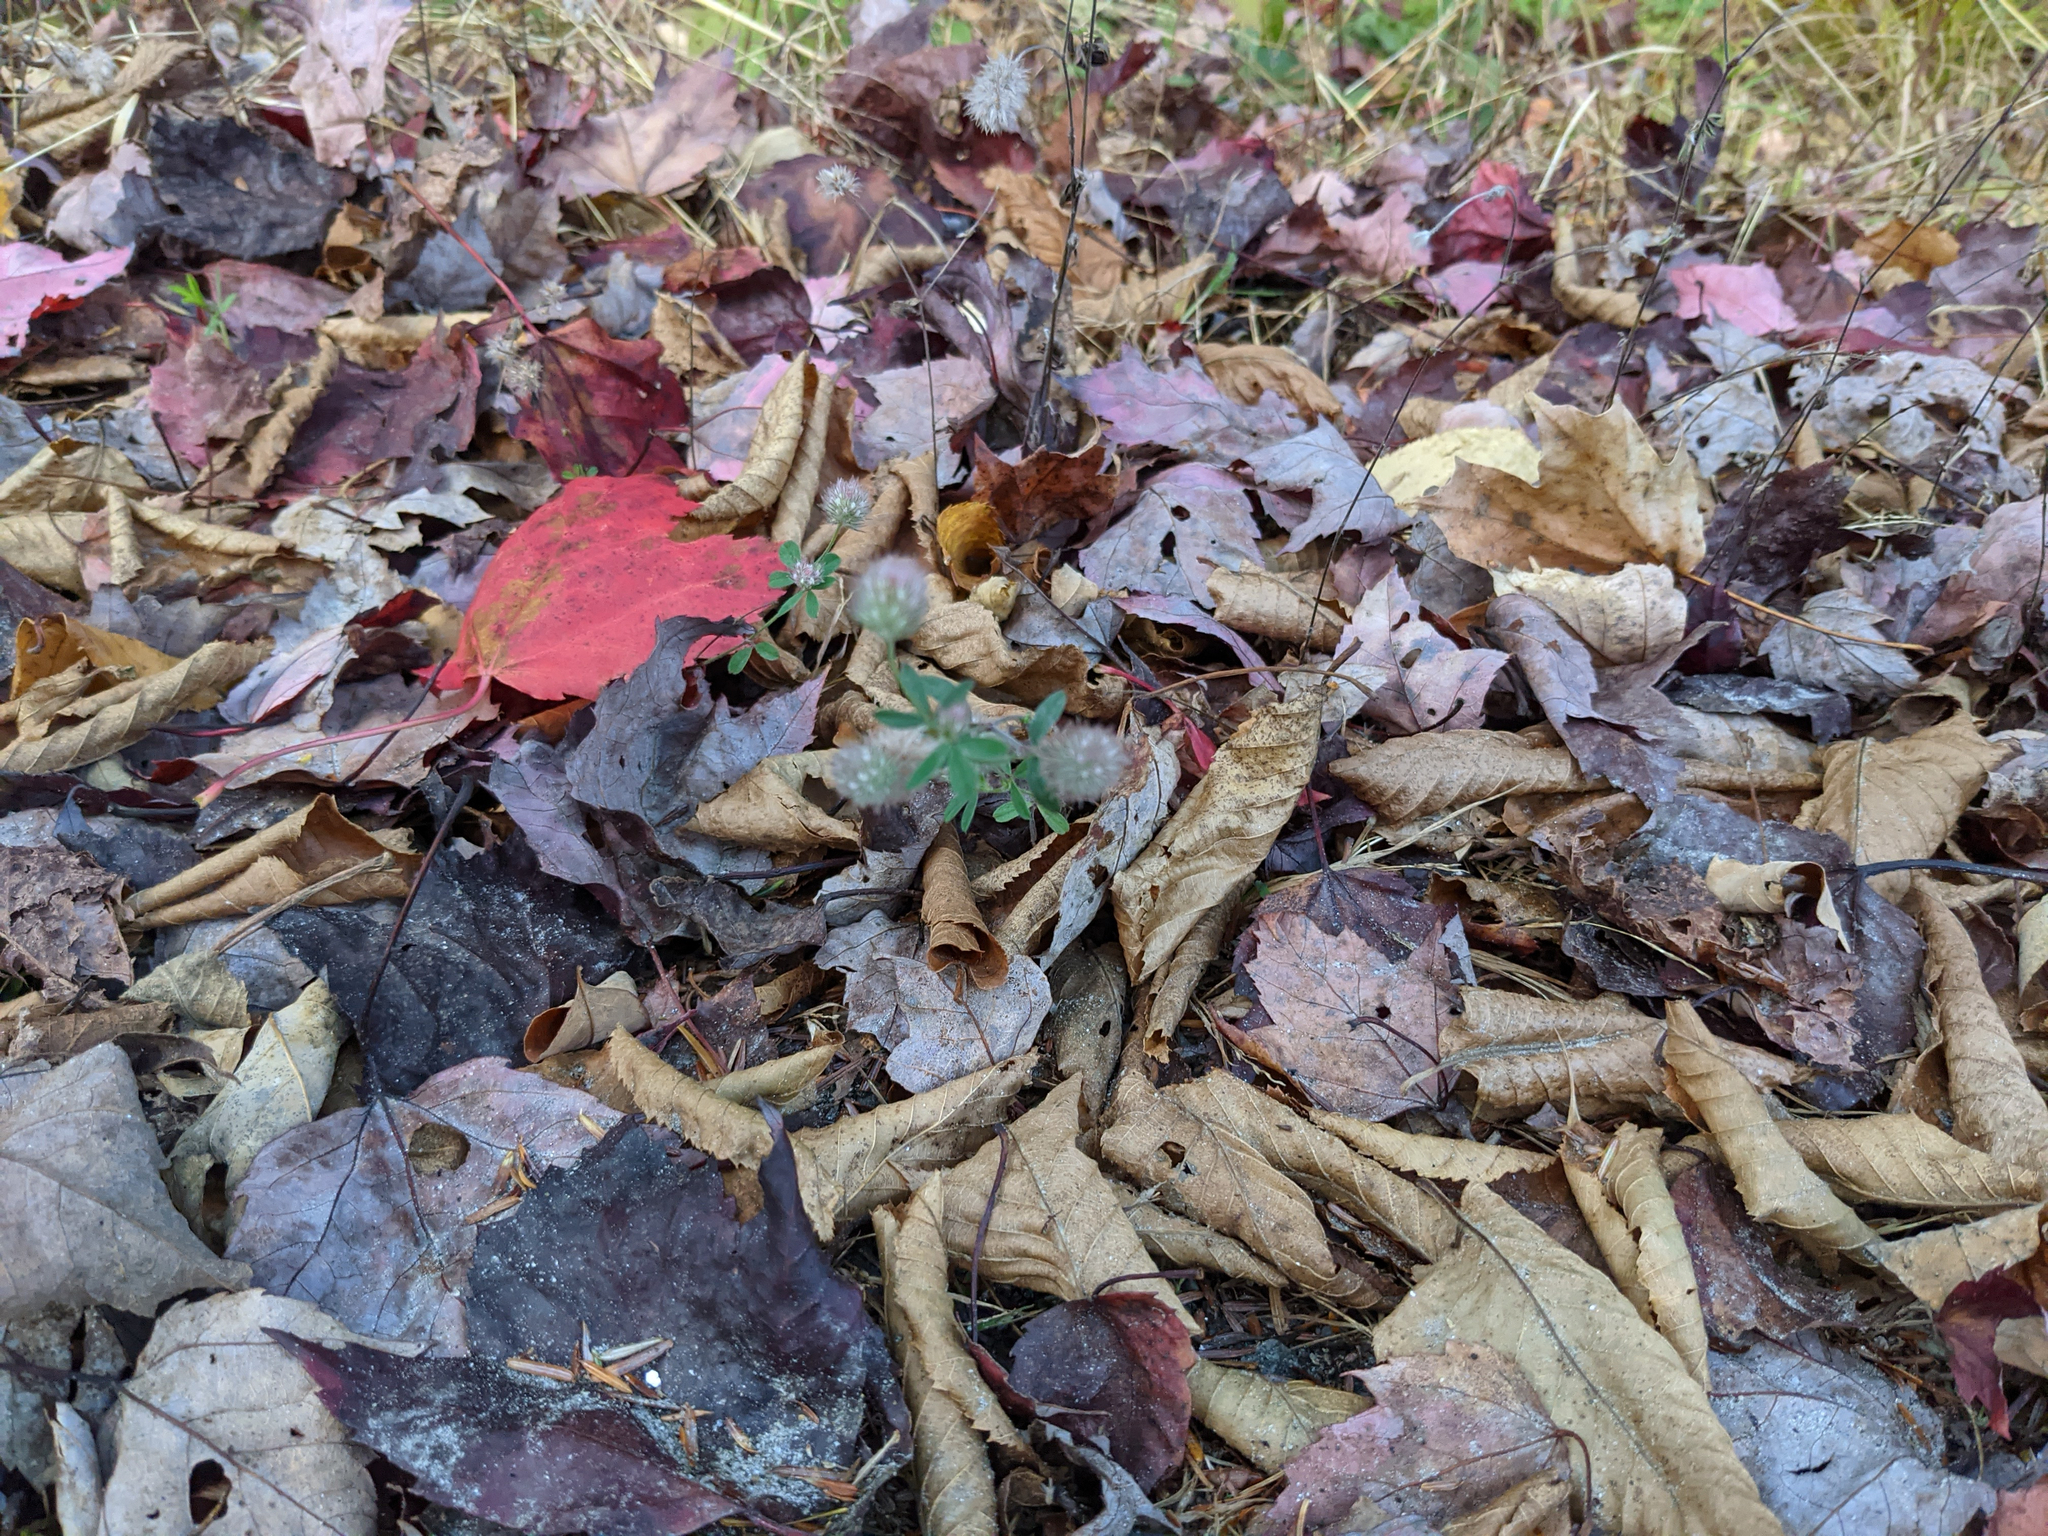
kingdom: Plantae
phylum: Tracheophyta
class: Magnoliopsida
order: Fabales
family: Fabaceae
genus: Trifolium
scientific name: Trifolium arvense
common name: Hare's-foot clover
